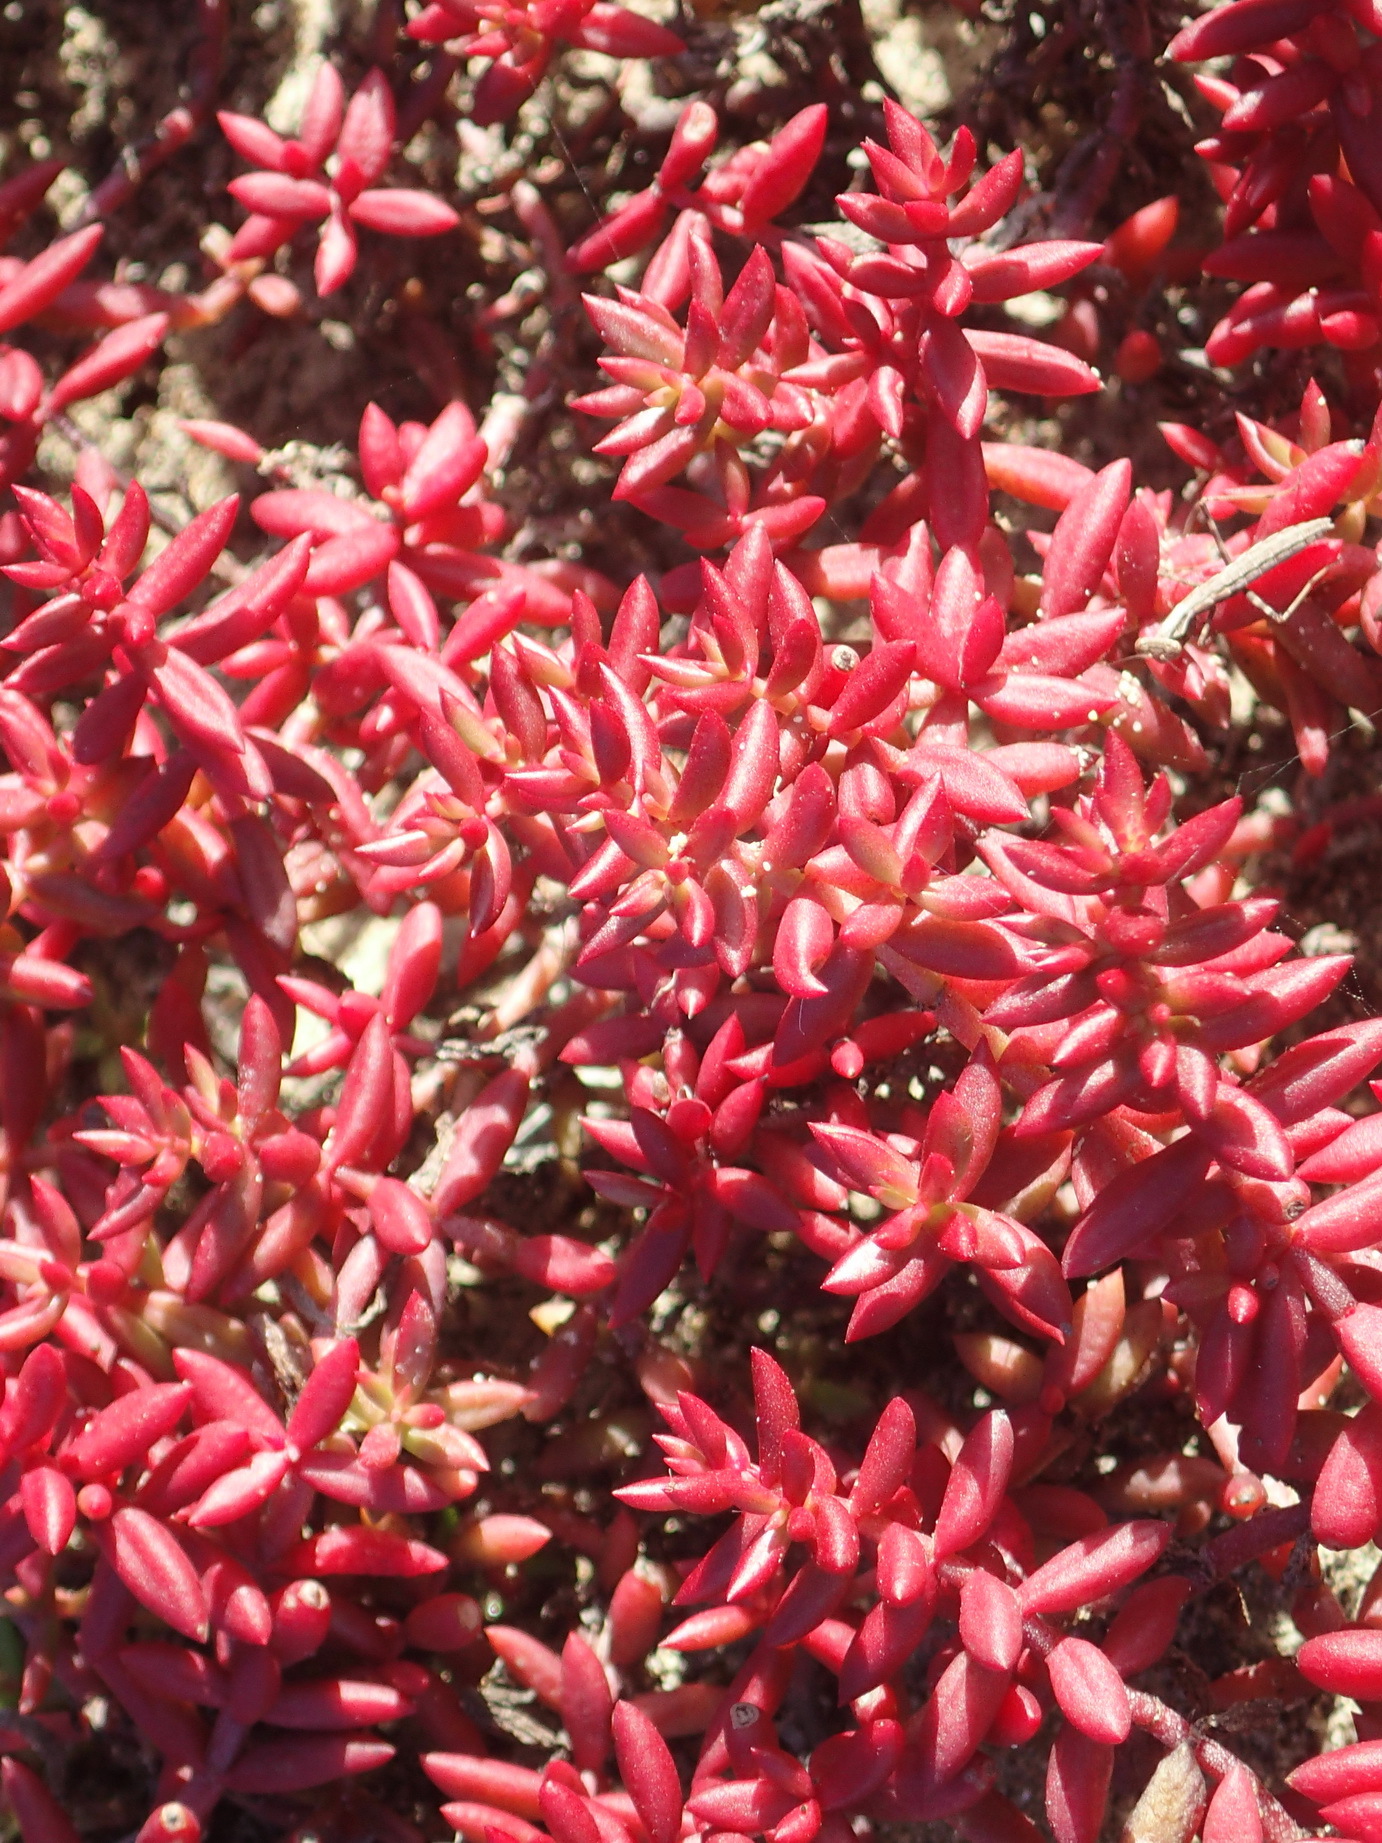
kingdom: Plantae
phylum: Tracheophyta
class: Magnoliopsida
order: Saxifragales
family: Crassulaceae
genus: Crassula
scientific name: Crassula expansa
